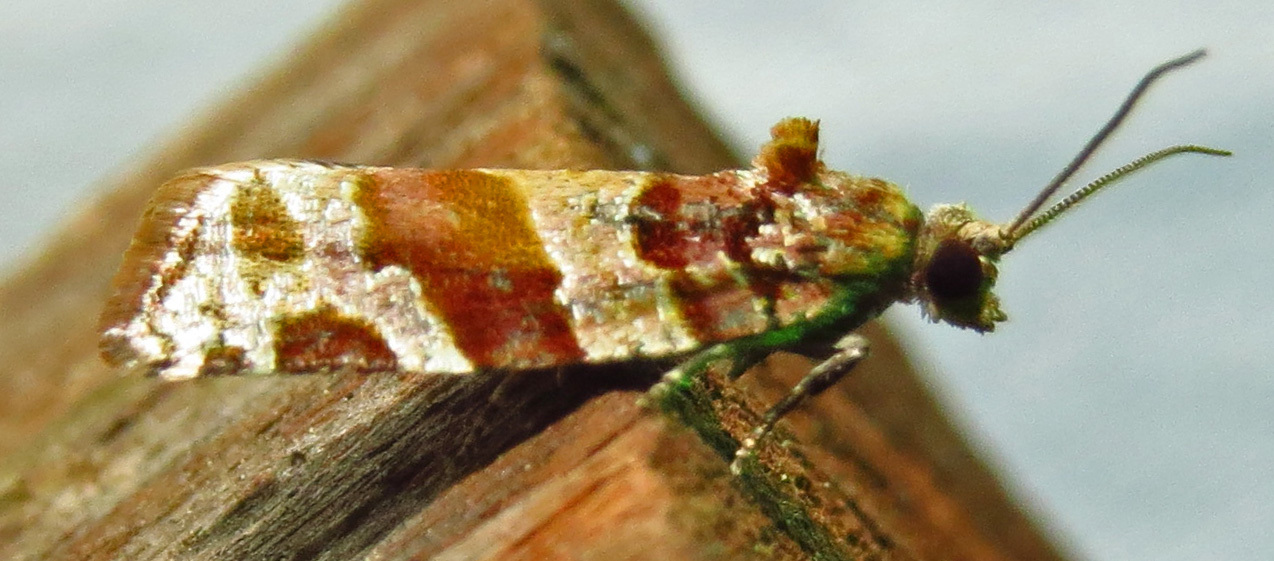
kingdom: Animalia
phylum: Arthropoda
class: Insecta
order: Lepidoptera
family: Tortricidae
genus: Argyrotaenia
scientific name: Argyrotaenia kimballi
